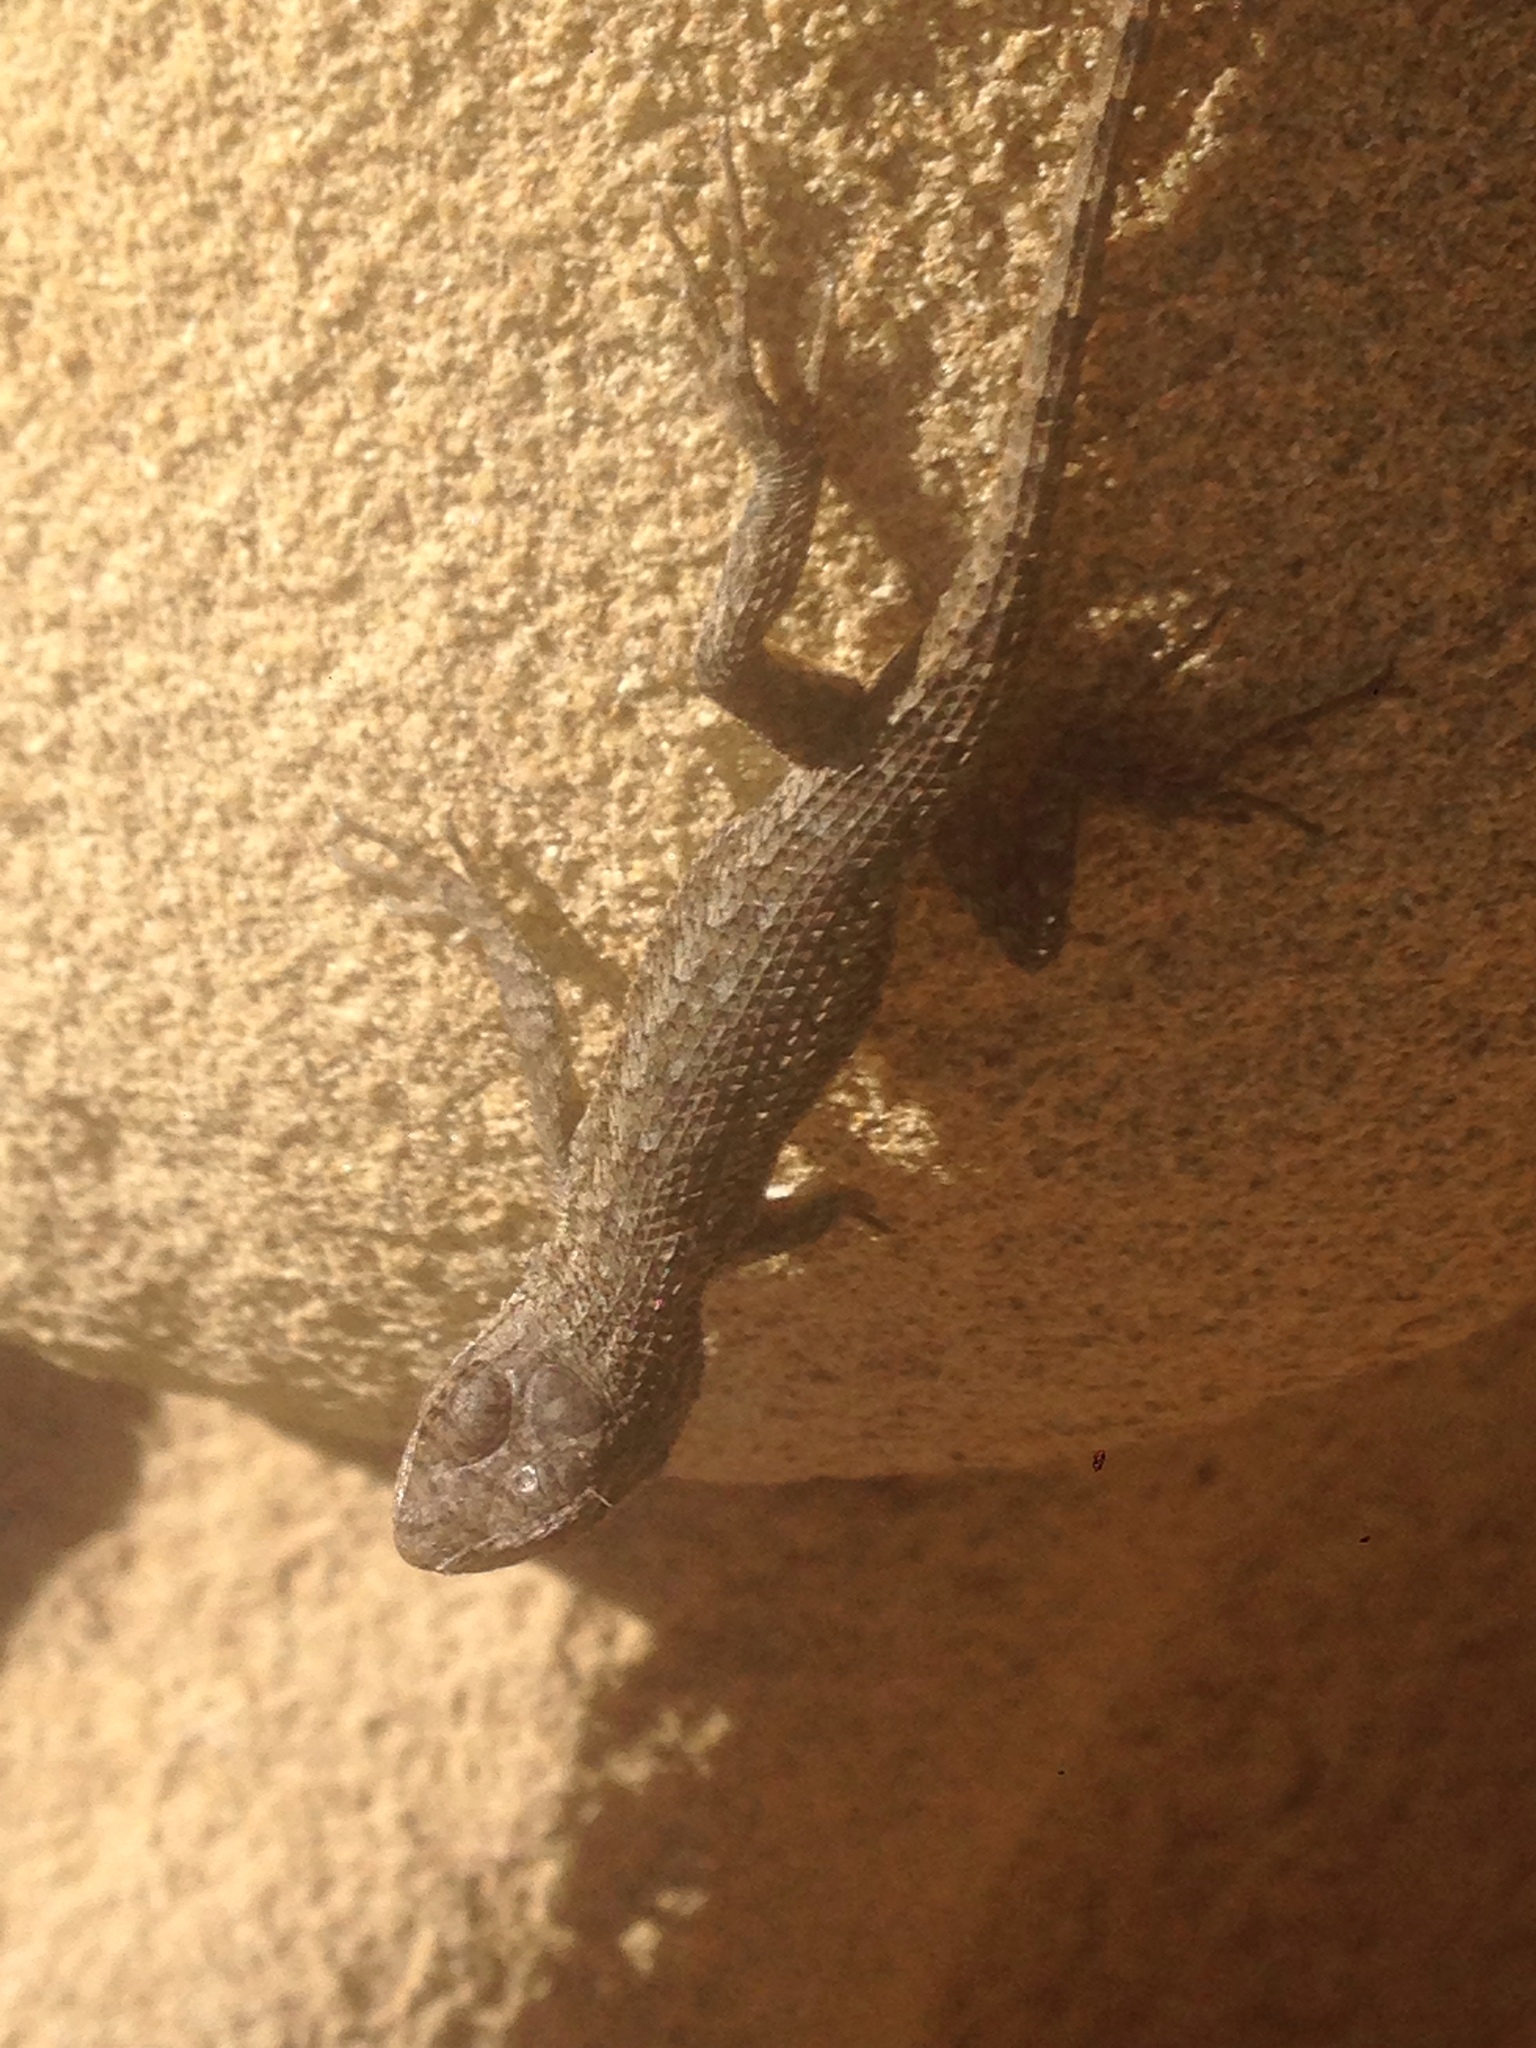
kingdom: Animalia
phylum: Chordata
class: Squamata
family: Phrynosomatidae
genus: Sceloporus
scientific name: Sceloporus occidentalis
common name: Western fence lizard
